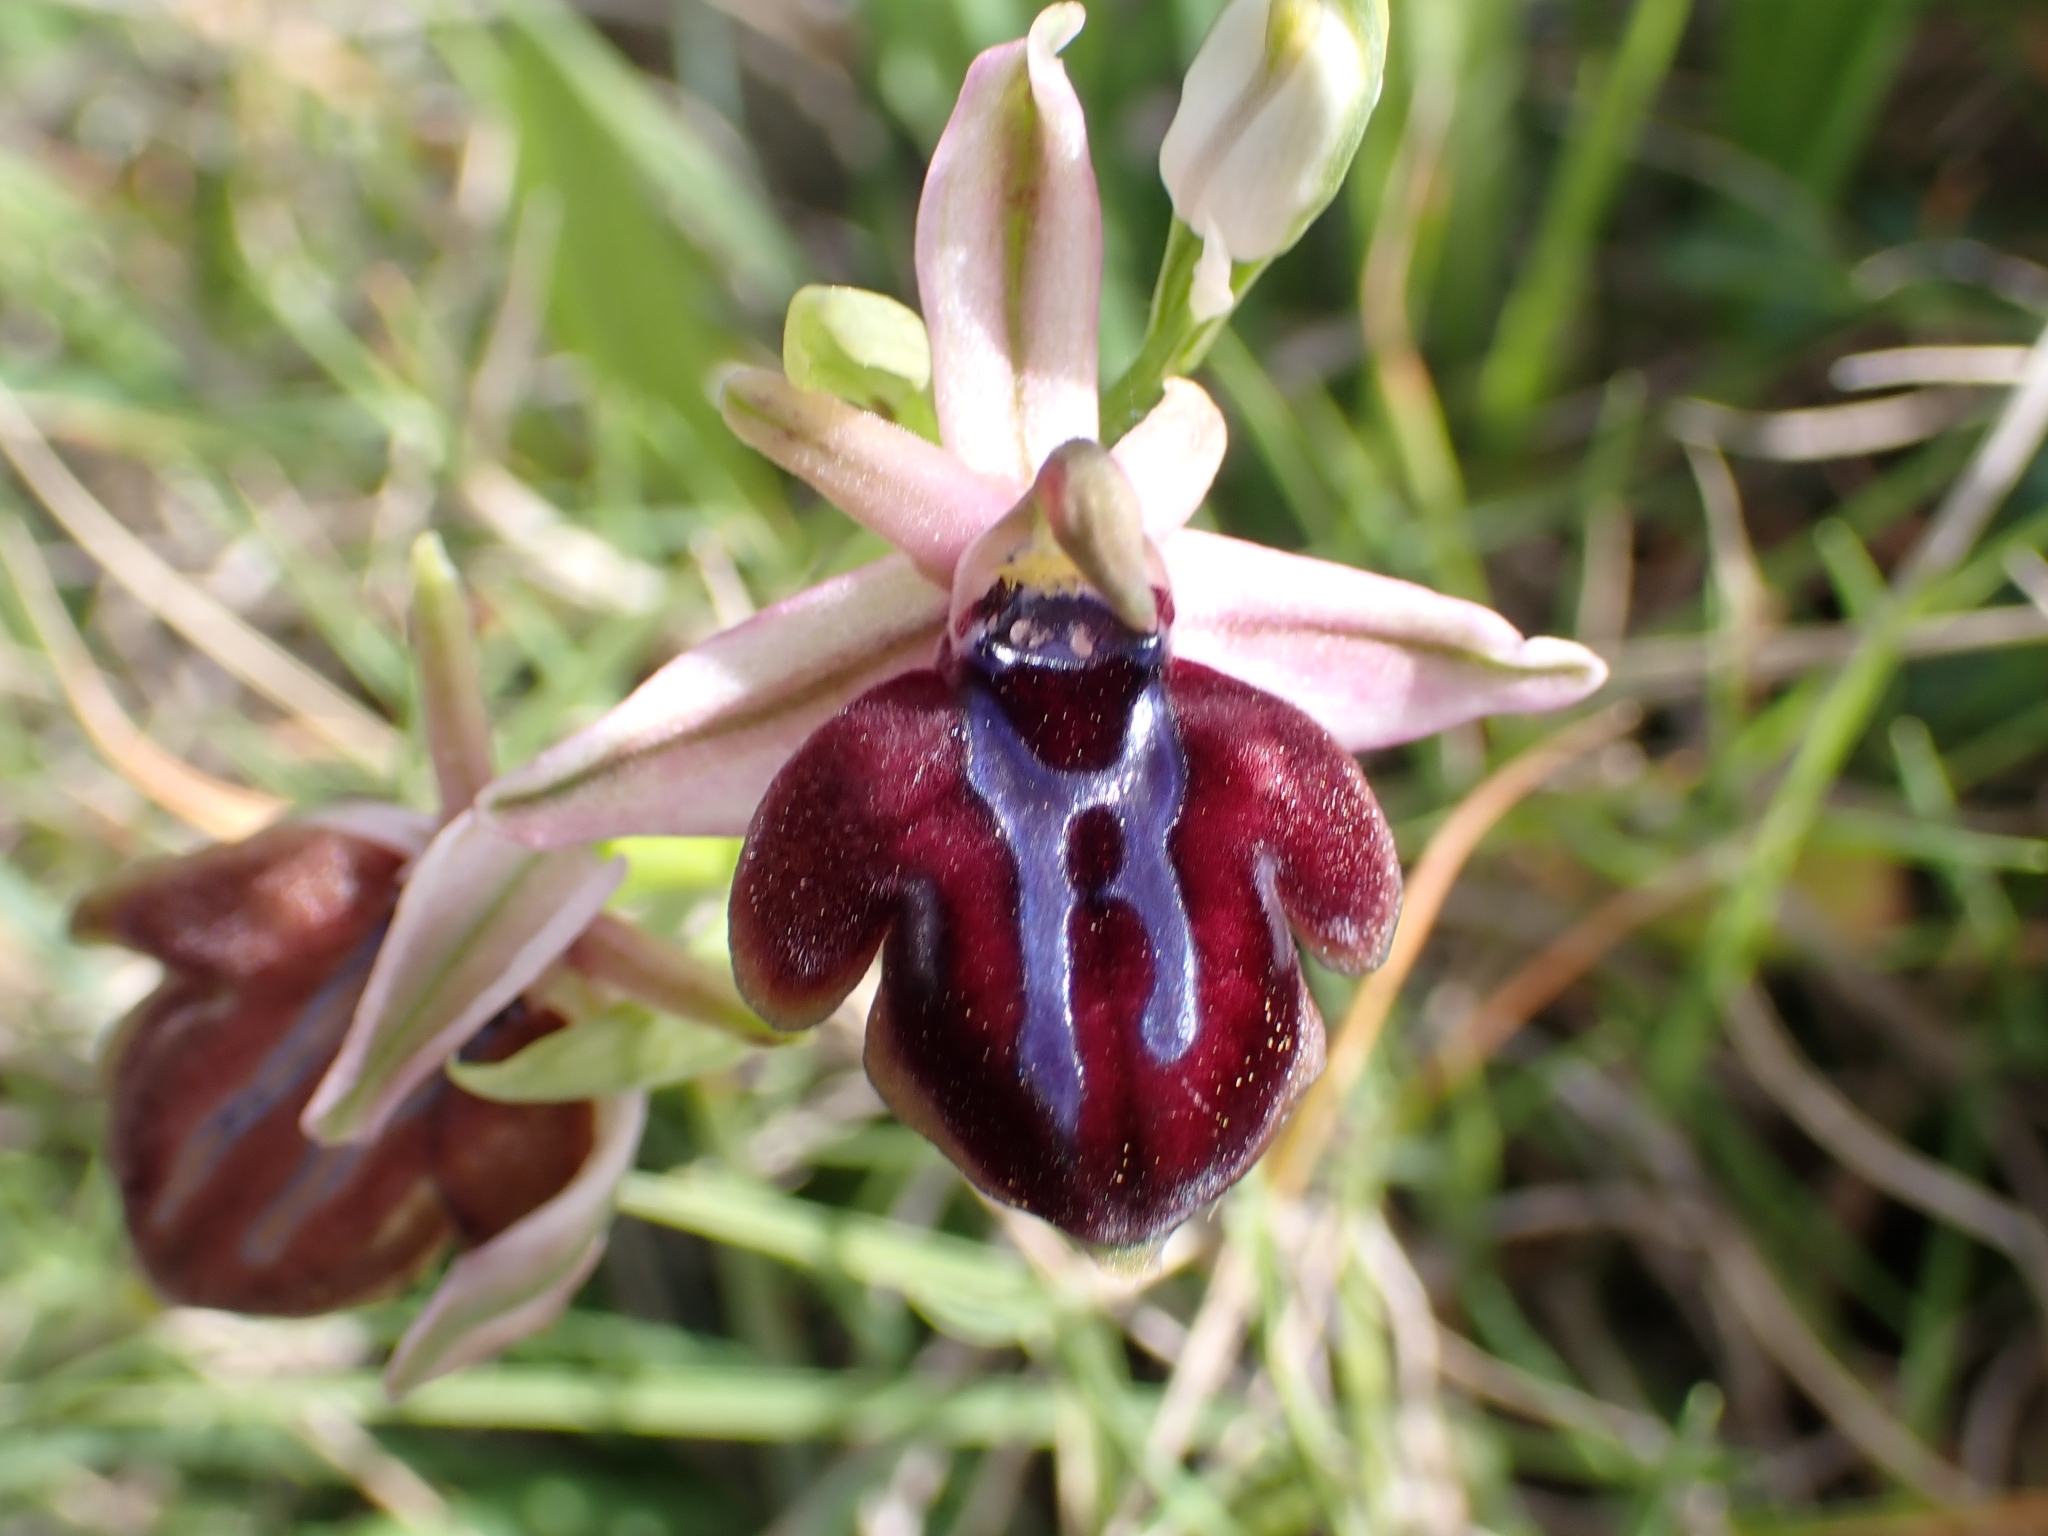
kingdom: Plantae
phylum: Tracheophyta
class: Liliopsida
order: Asparagales
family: Orchidaceae
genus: Ophrys
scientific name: Ophrys sphegodes
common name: Early spider-orchid
